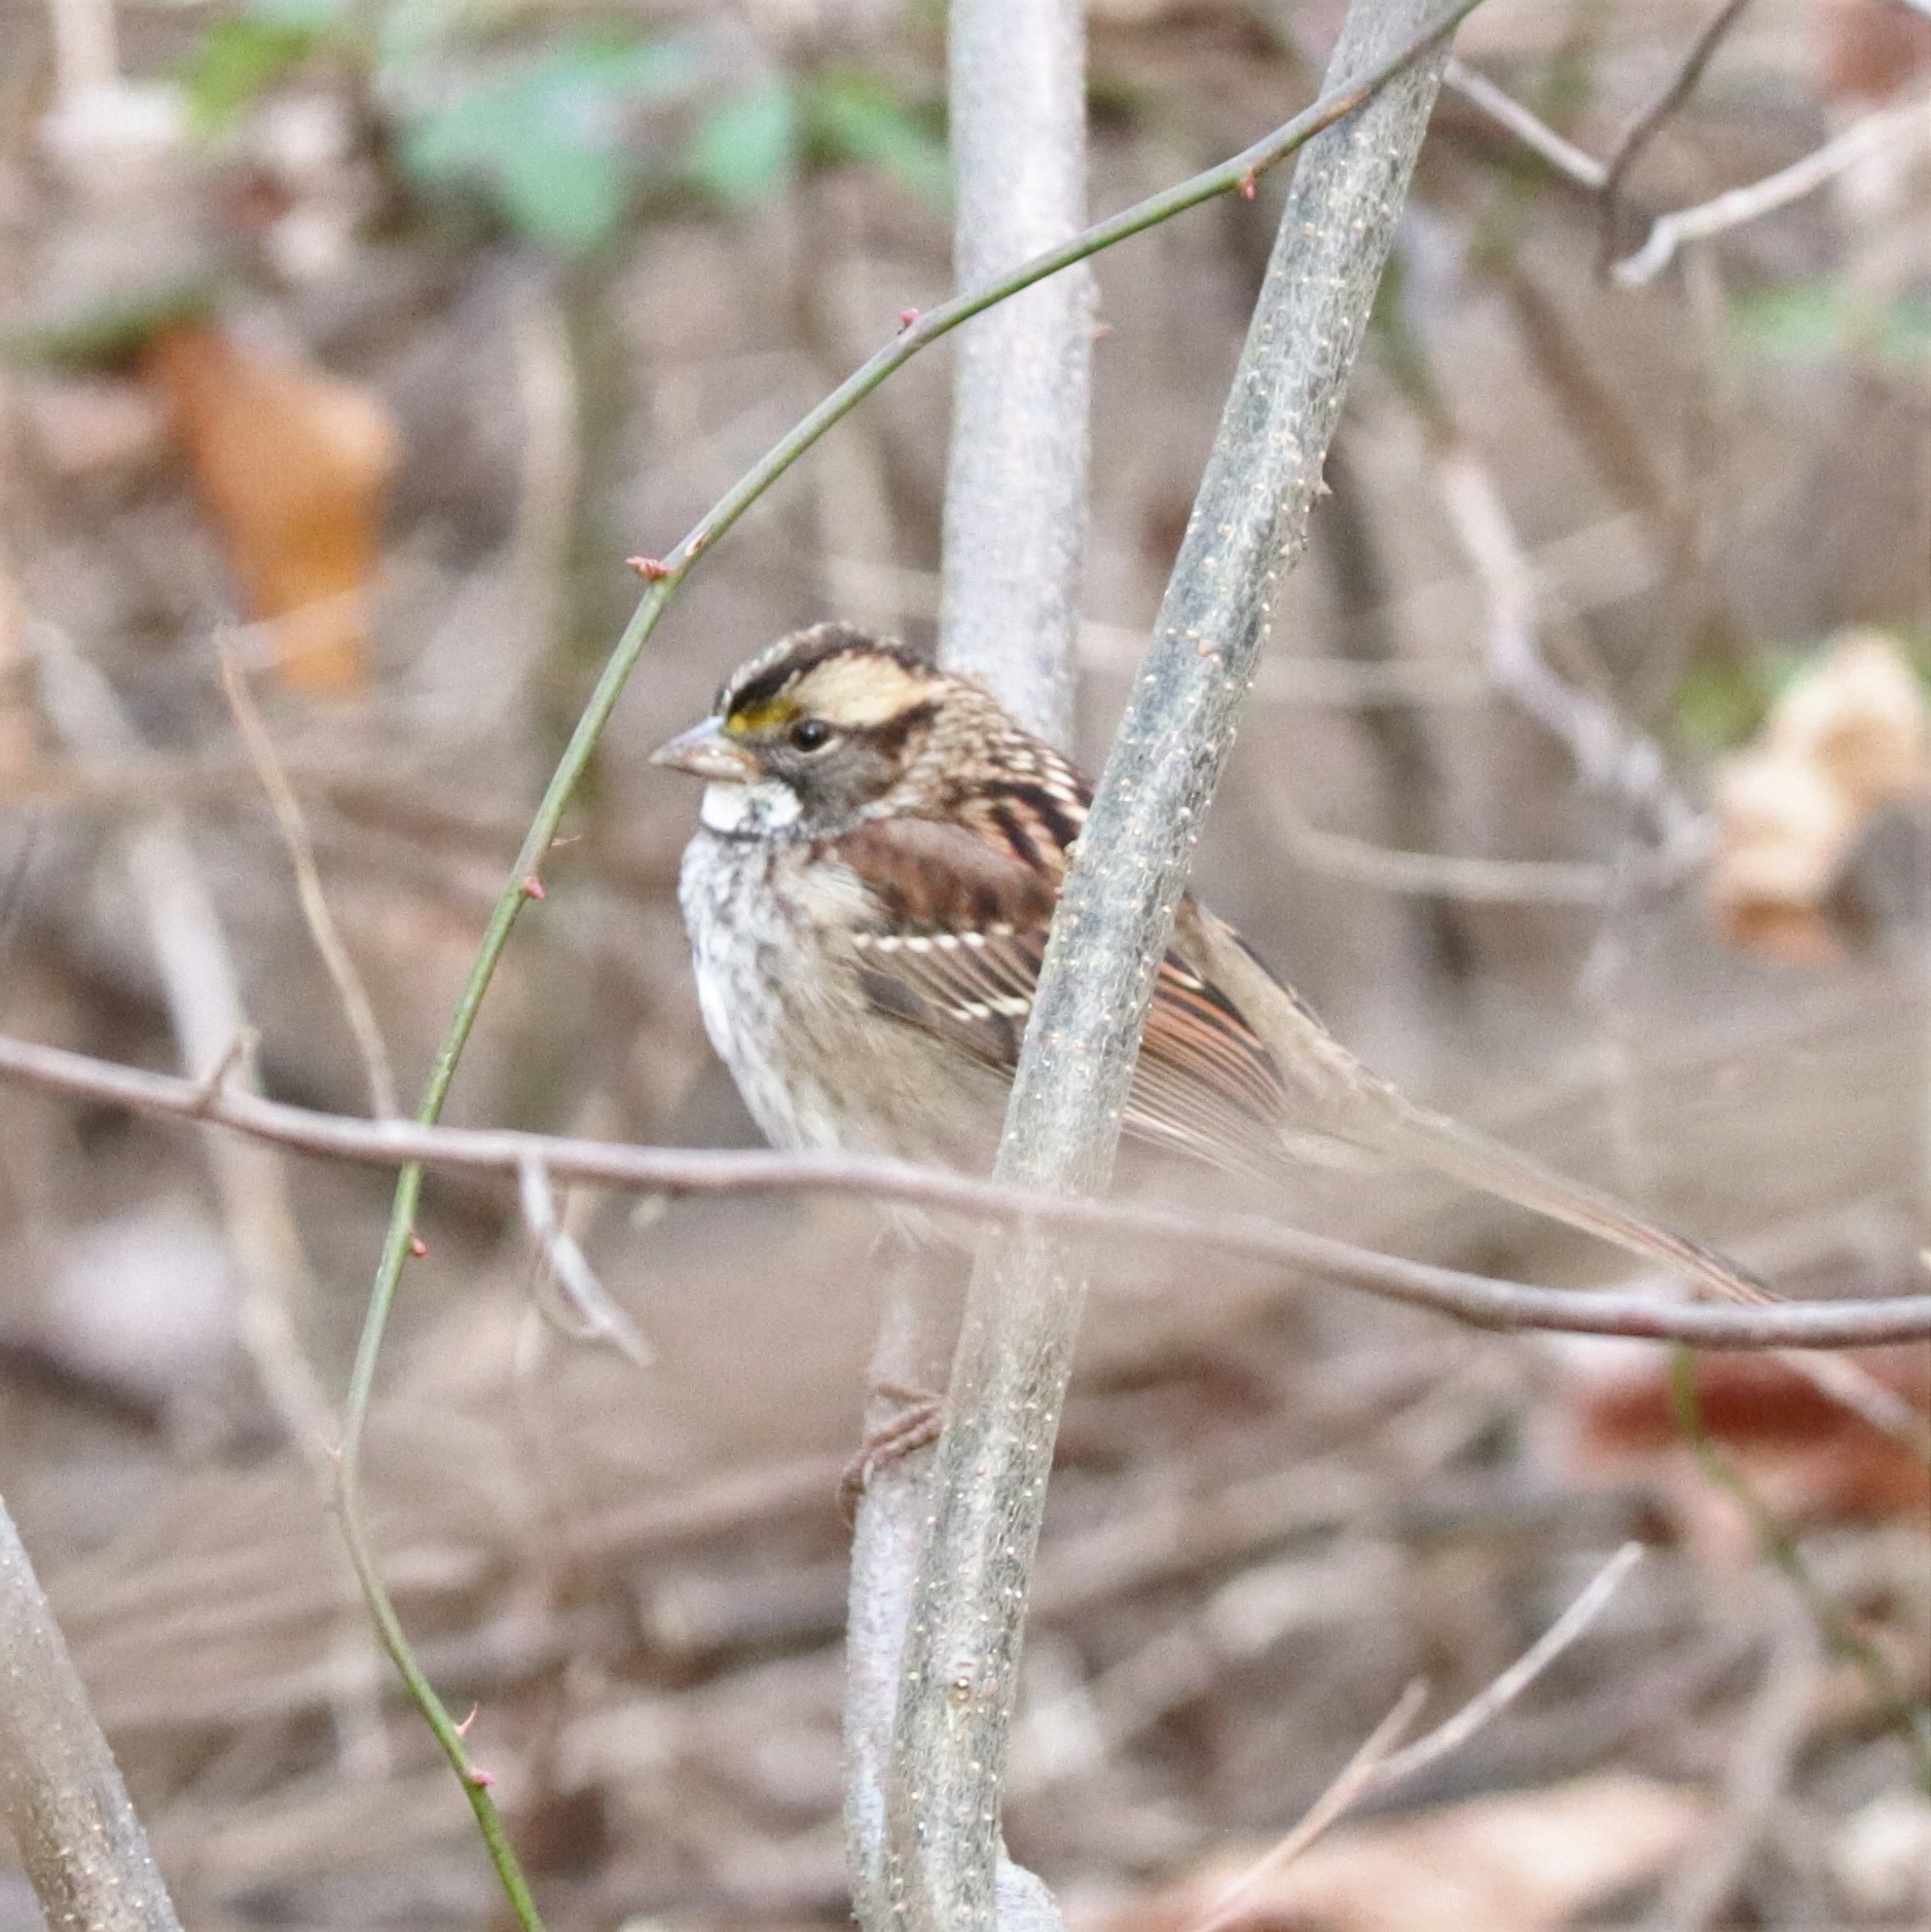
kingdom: Animalia
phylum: Chordata
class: Aves
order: Passeriformes
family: Passerellidae
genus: Zonotrichia
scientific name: Zonotrichia albicollis
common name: White-throated sparrow
